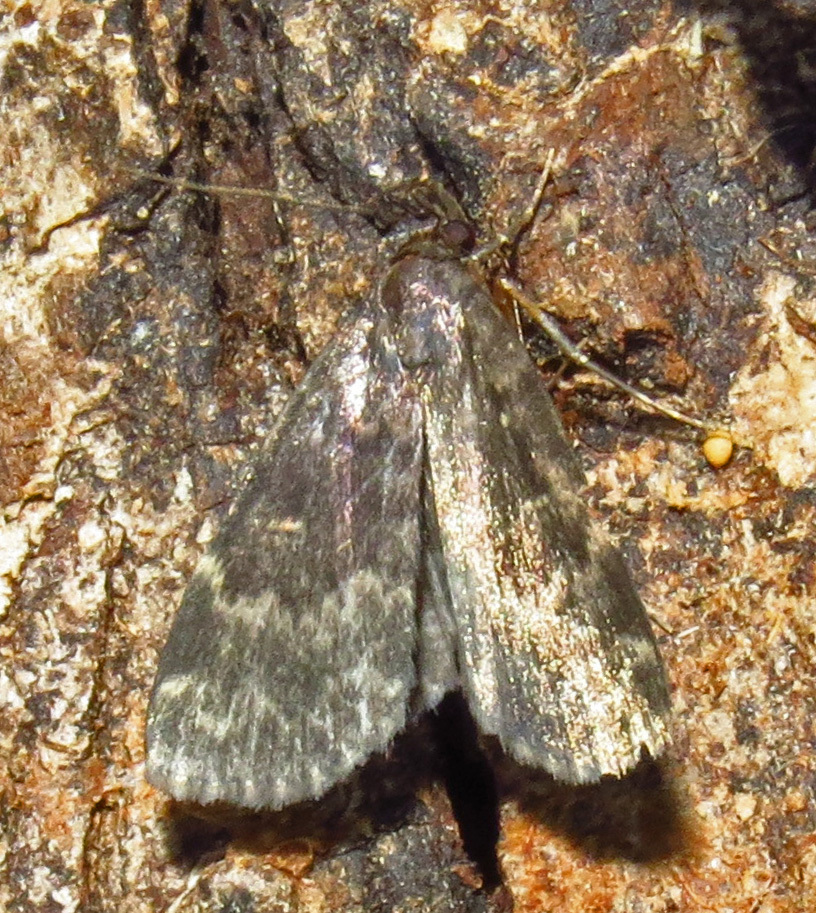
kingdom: Animalia
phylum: Arthropoda
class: Insecta
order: Lepidoptera
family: Erebidae
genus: Idia
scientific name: Idia lubricalis
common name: Twin-striped tabby
